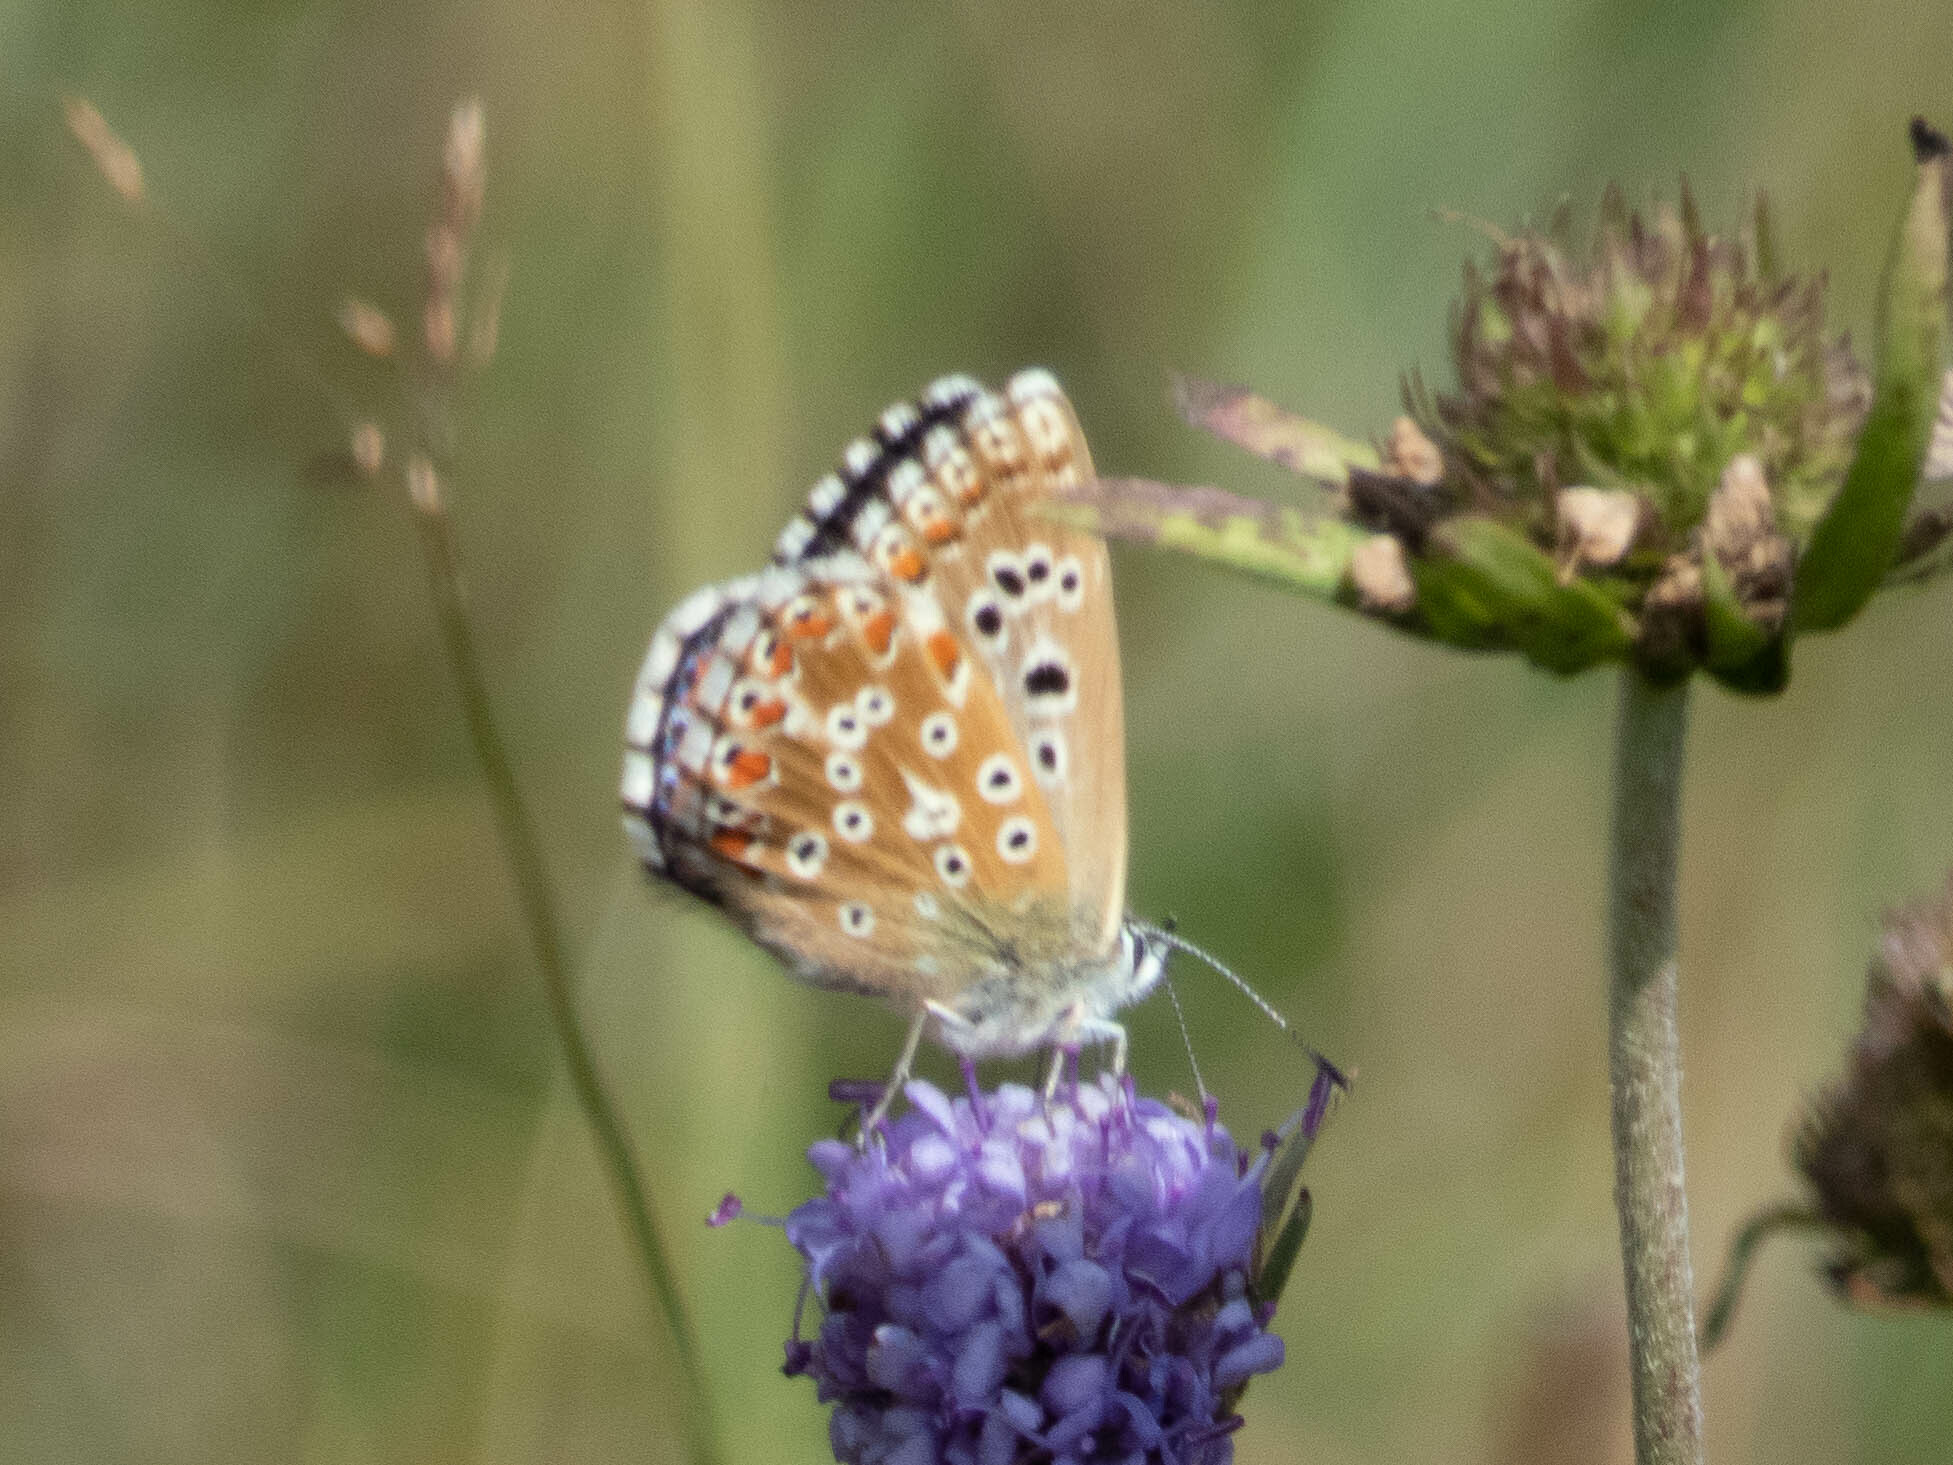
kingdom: Animalia
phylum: Arthropoda
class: Insecta
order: Lepidoptera
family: Lycaenidae
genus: Lysandra
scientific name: Lysandra bellargus
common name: Adonis blue
